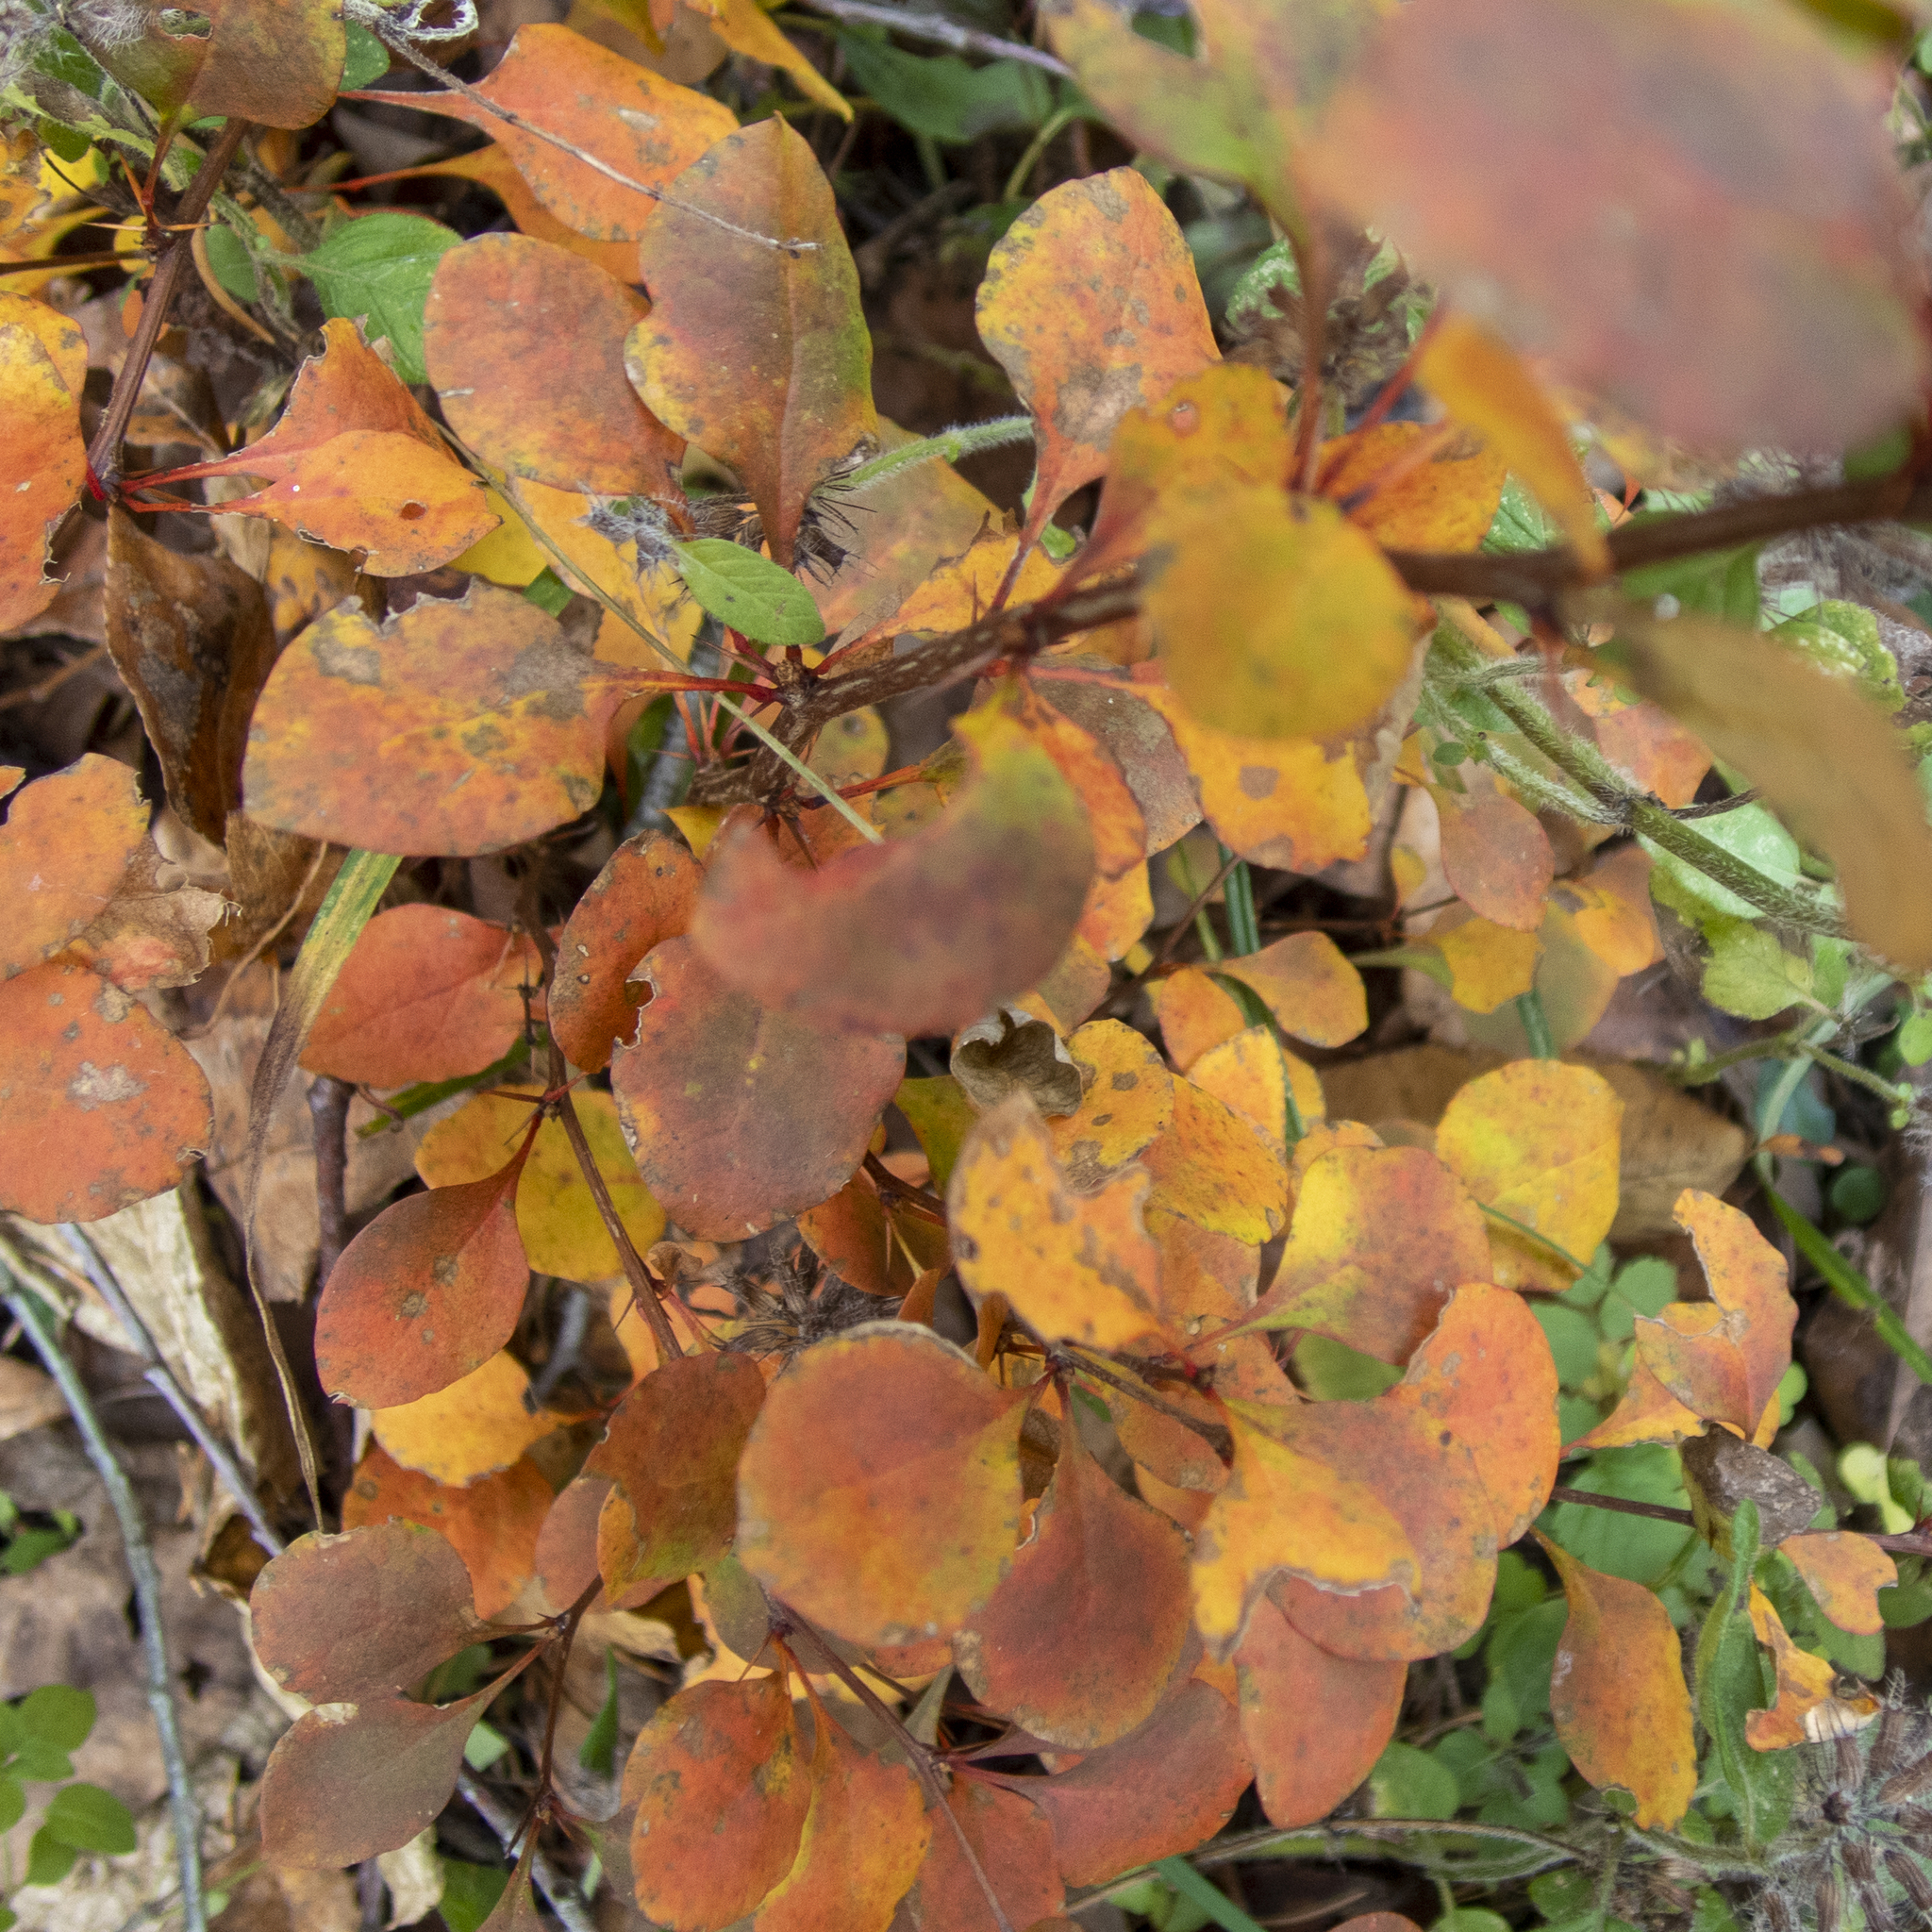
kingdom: Plantae
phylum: Tracheophyta
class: Magnoliopsida
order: Ranunculales
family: Berberidaceae
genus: Berberis
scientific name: Berberis thunbergii
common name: Japanese barberry
